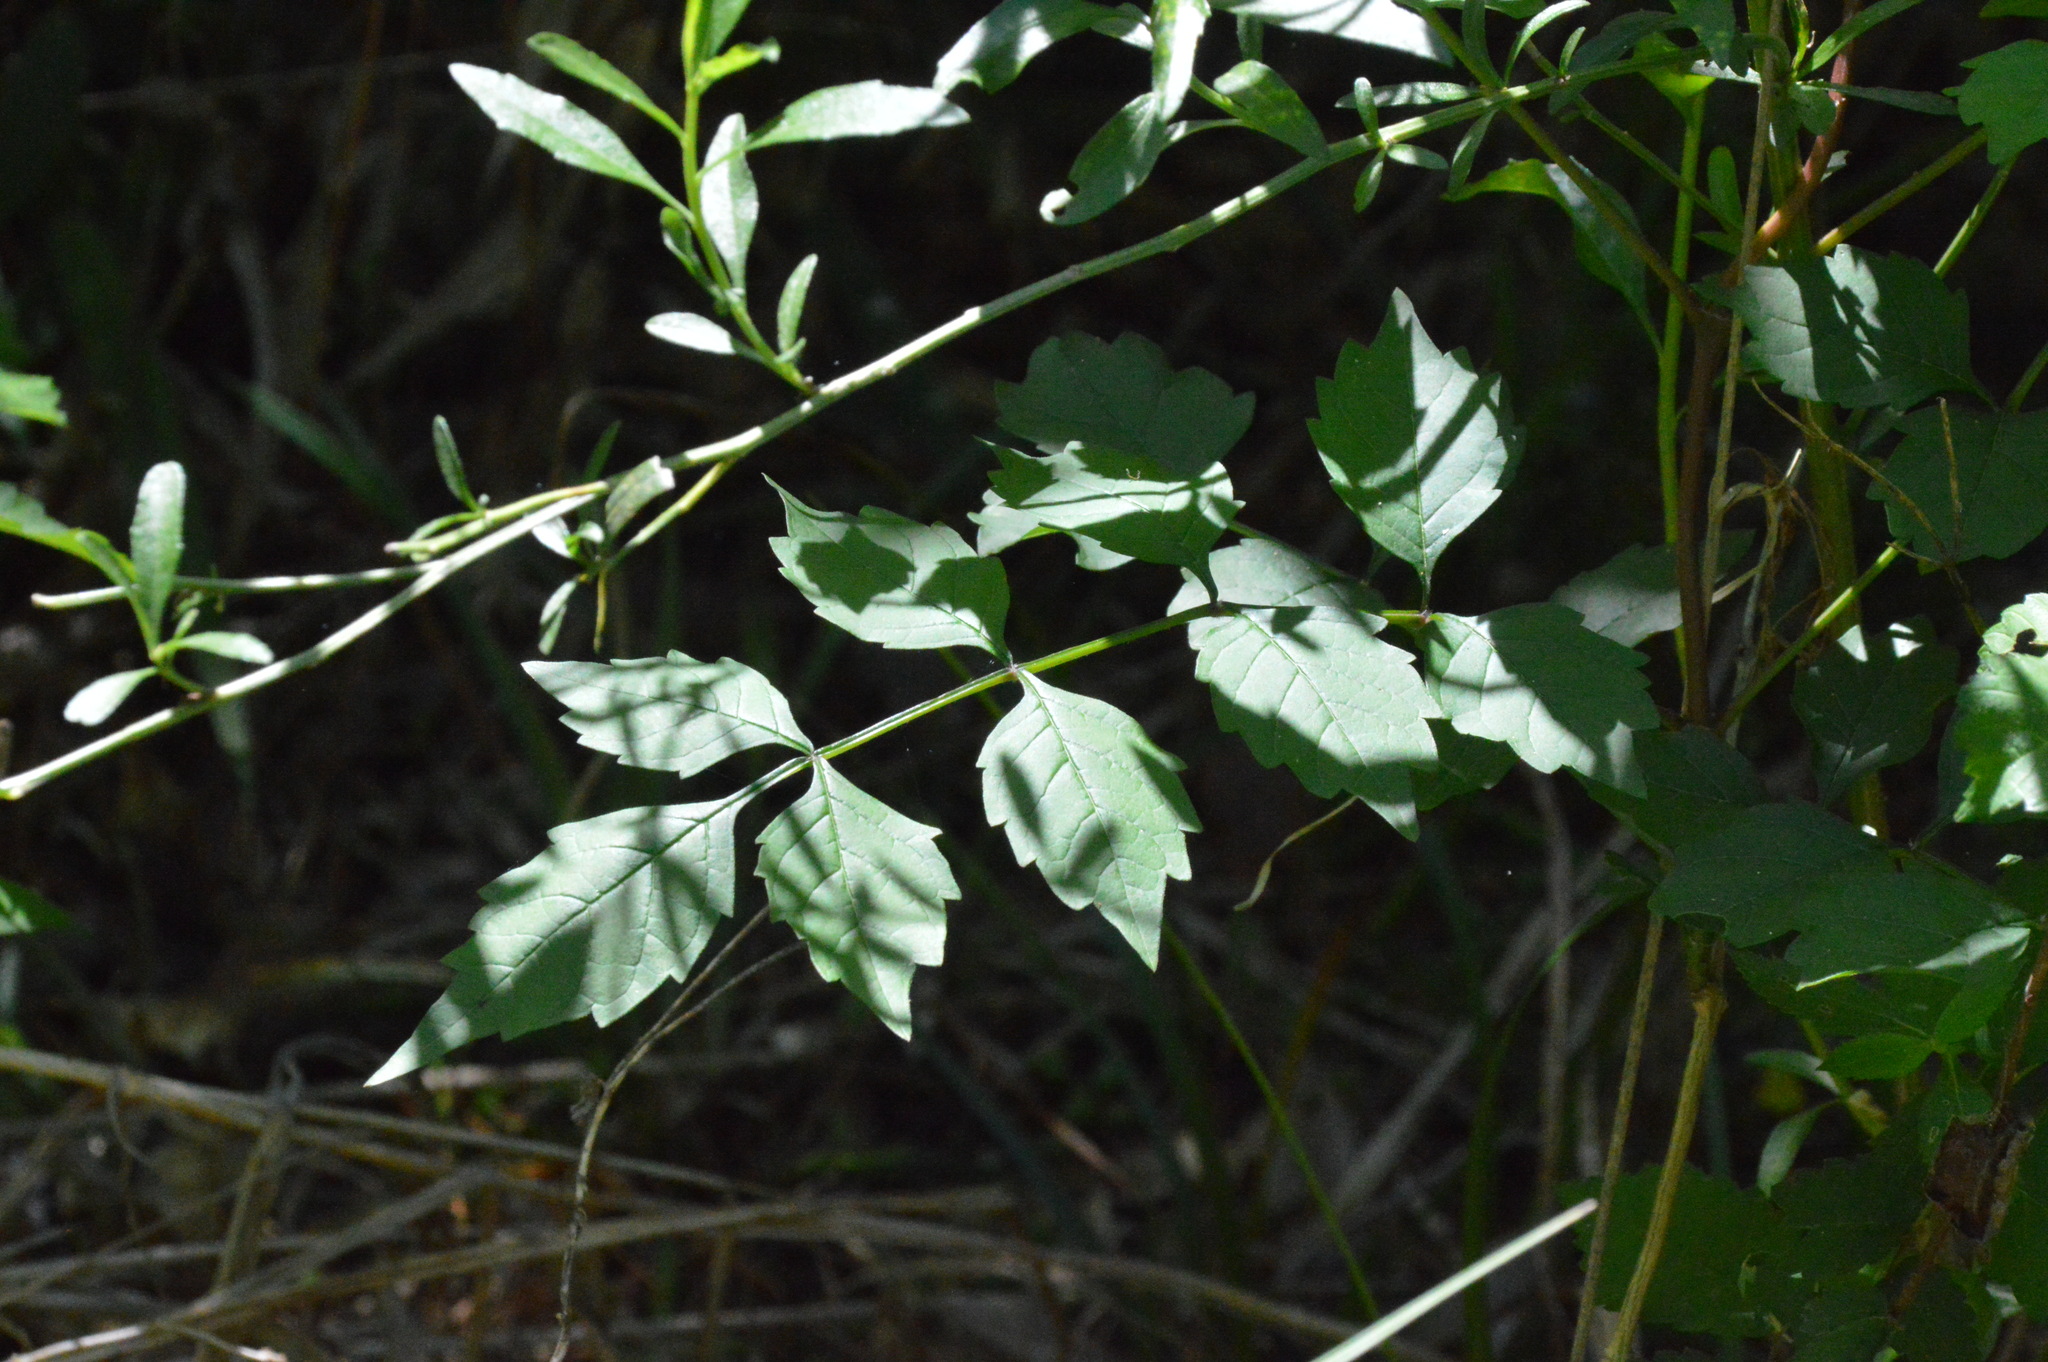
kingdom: Plantae
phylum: Tracheophyta
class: Magnoliopsida
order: Lamiales
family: Bignoniaceae
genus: Campsis
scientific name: Campsis radicans
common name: Trumpet-creeper
